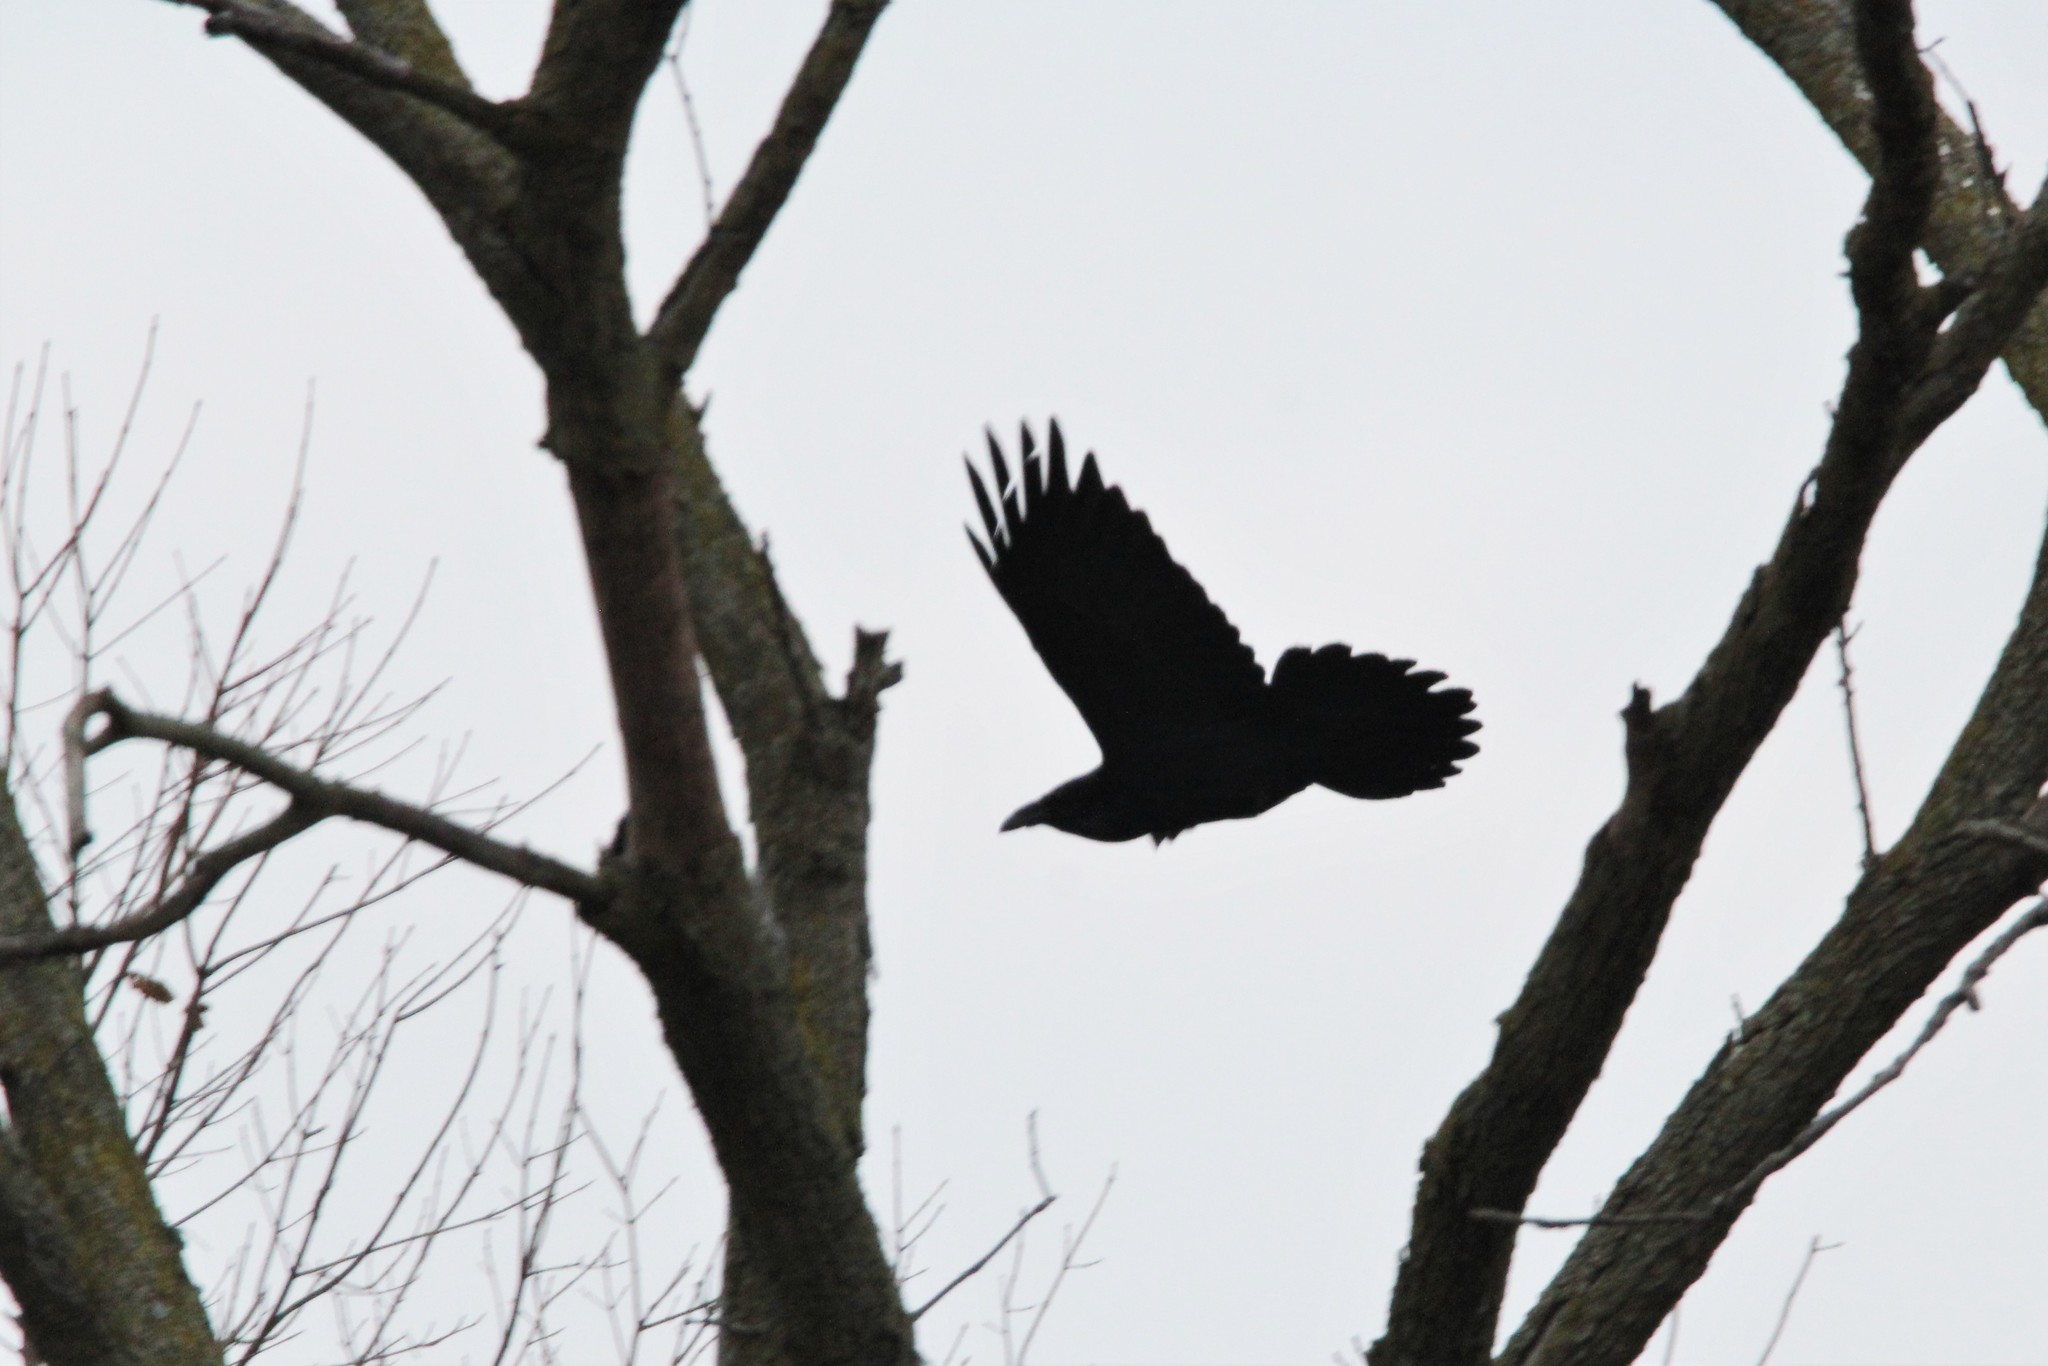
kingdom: Animalia
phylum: Chordata
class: Aves
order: Passeriformes
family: Corvidae
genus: Corvus
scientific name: Corvus corax
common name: Common raven
